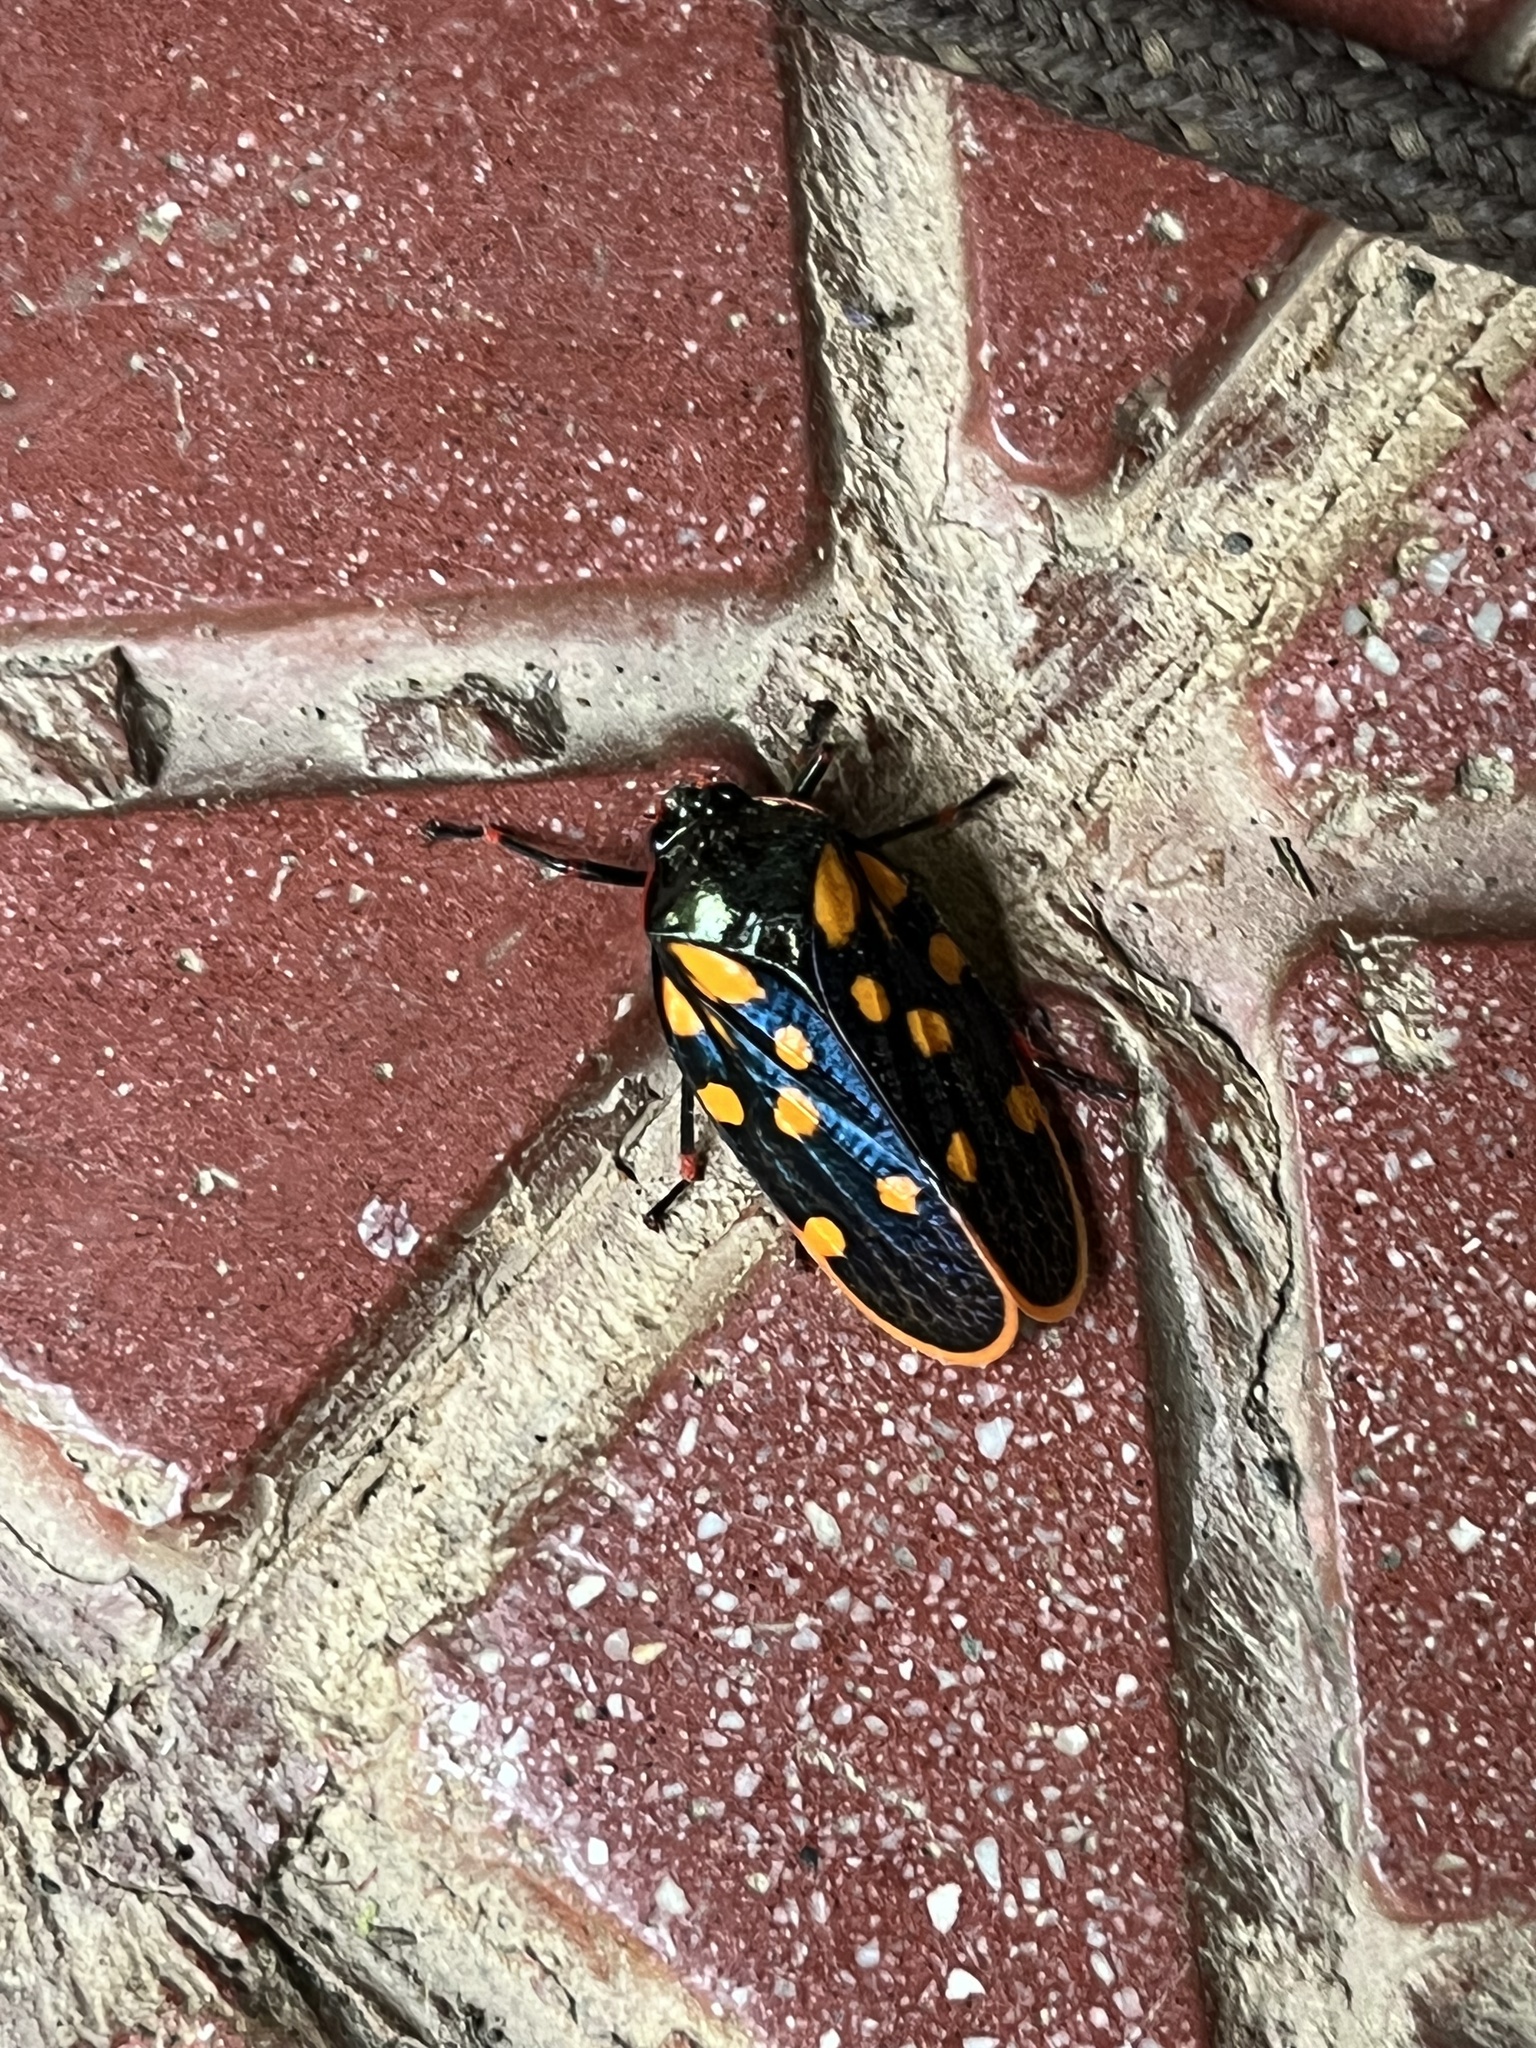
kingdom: Animalia
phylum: Arthropoda
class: Insecta
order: Hemiptera
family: Cercopidae
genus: Mahanarva
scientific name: Mahanarva costaricensis
